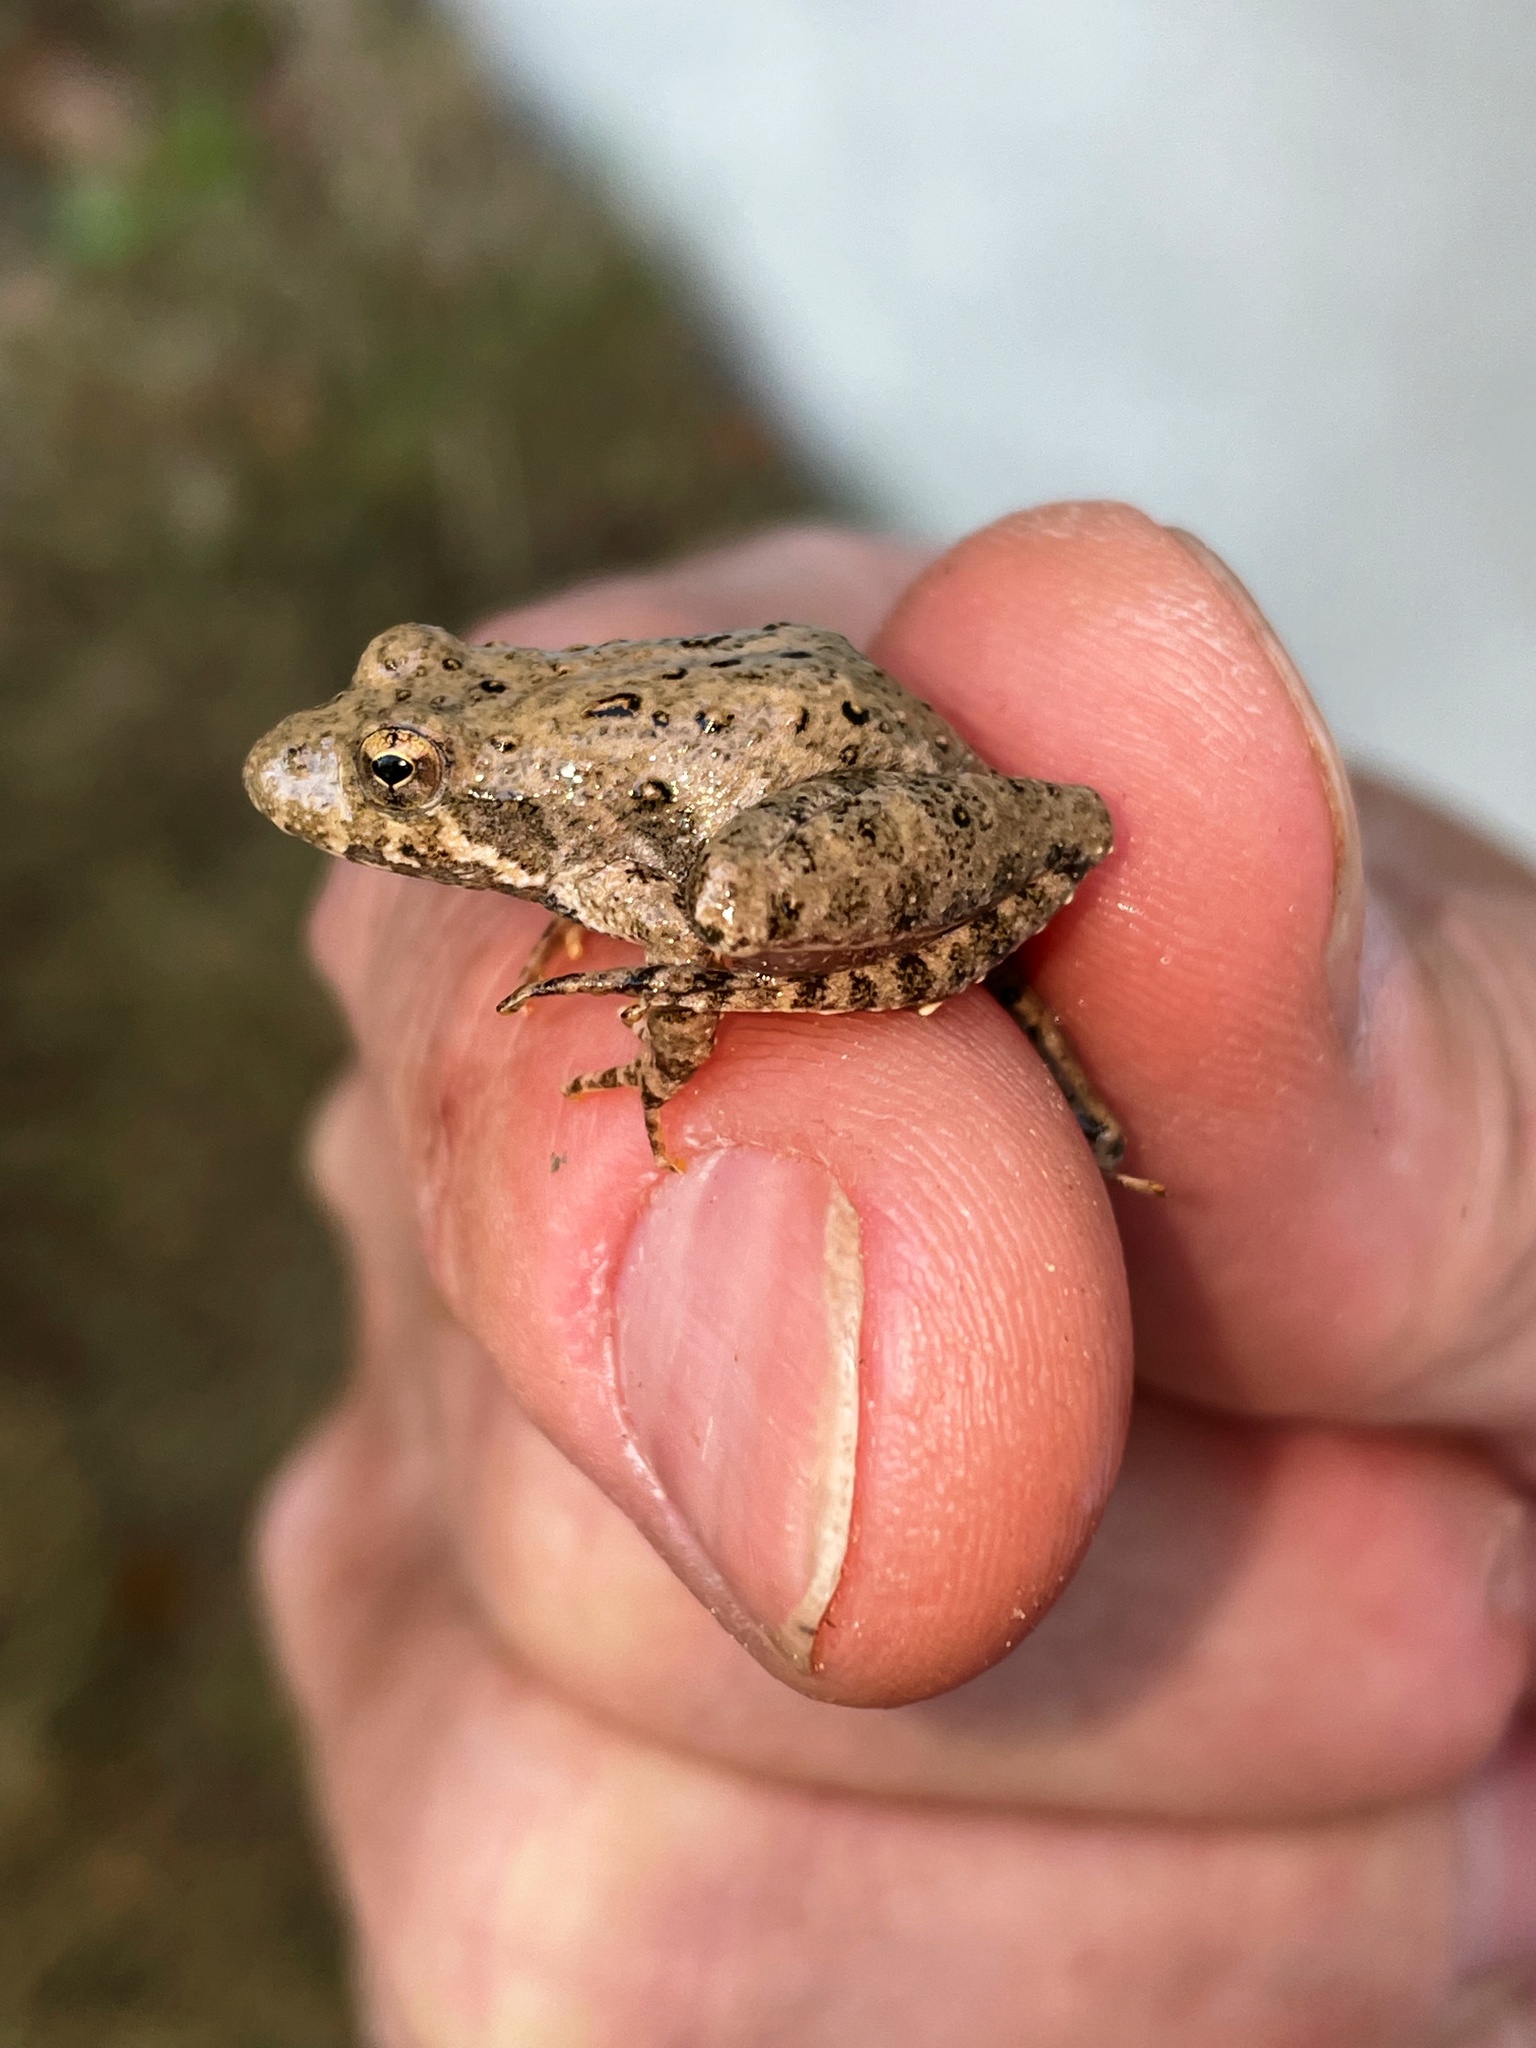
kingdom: Animalia
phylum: Chordata
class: Amphibia
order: Anura
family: Hylidae
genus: Acris
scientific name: Acris blanchardi
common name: Blanchard's cricket frog
